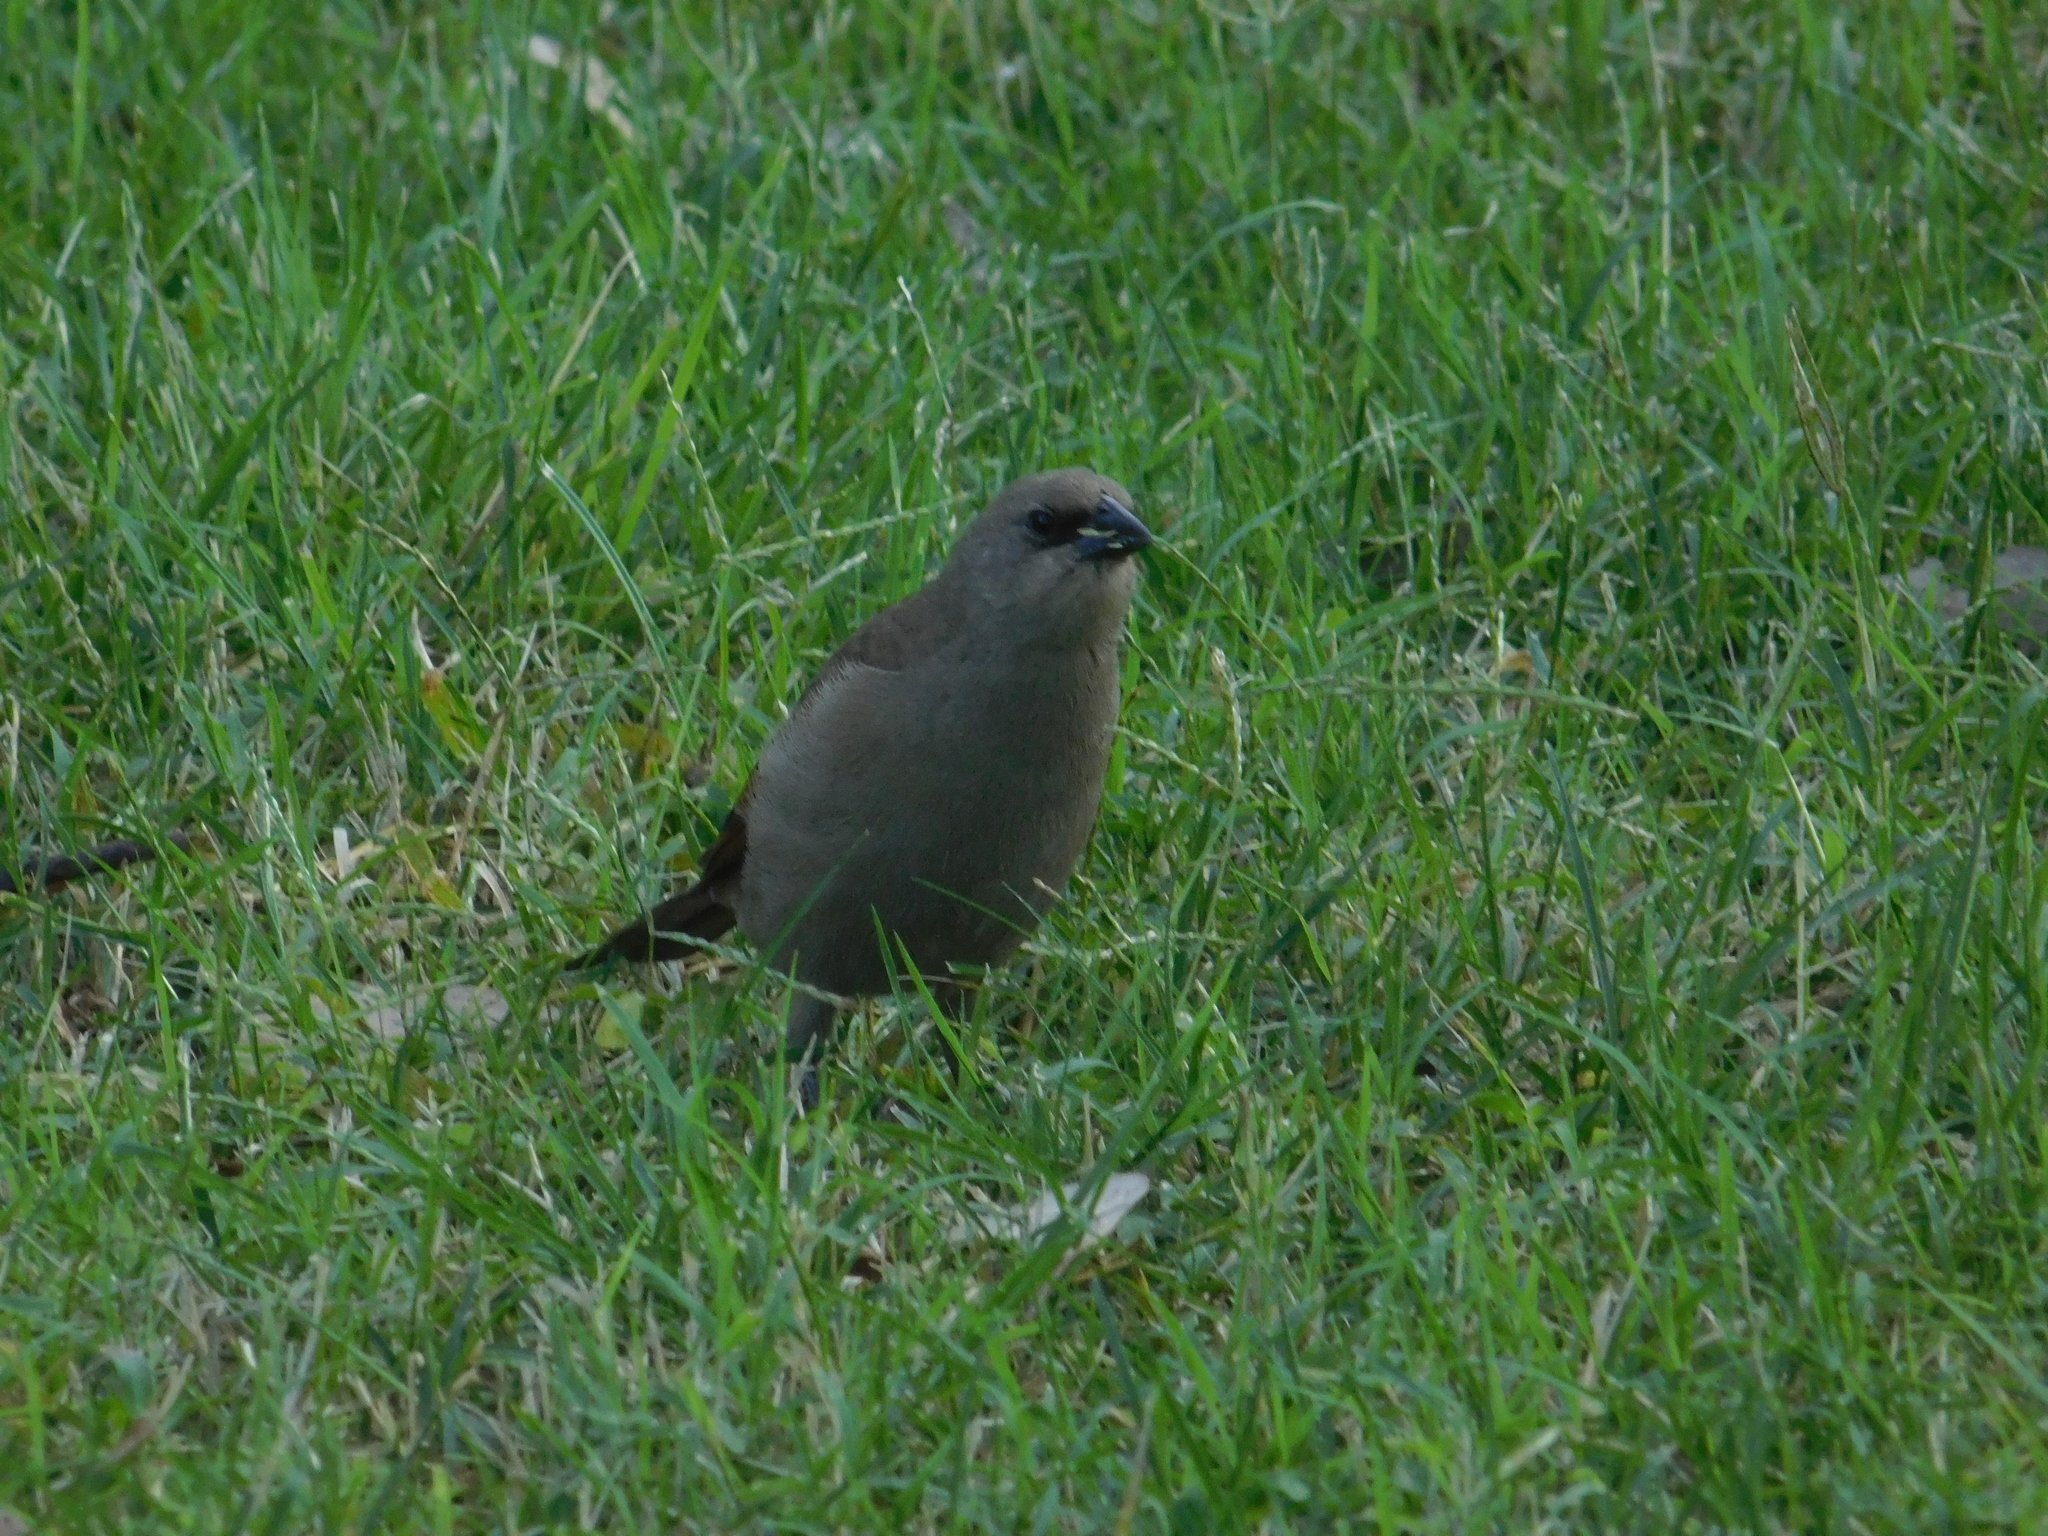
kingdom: Animalia
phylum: Chordata
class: Aves
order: Passeriformes
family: Icteridae
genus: Agelaioides
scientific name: Agelaioides badius
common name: Baywing
